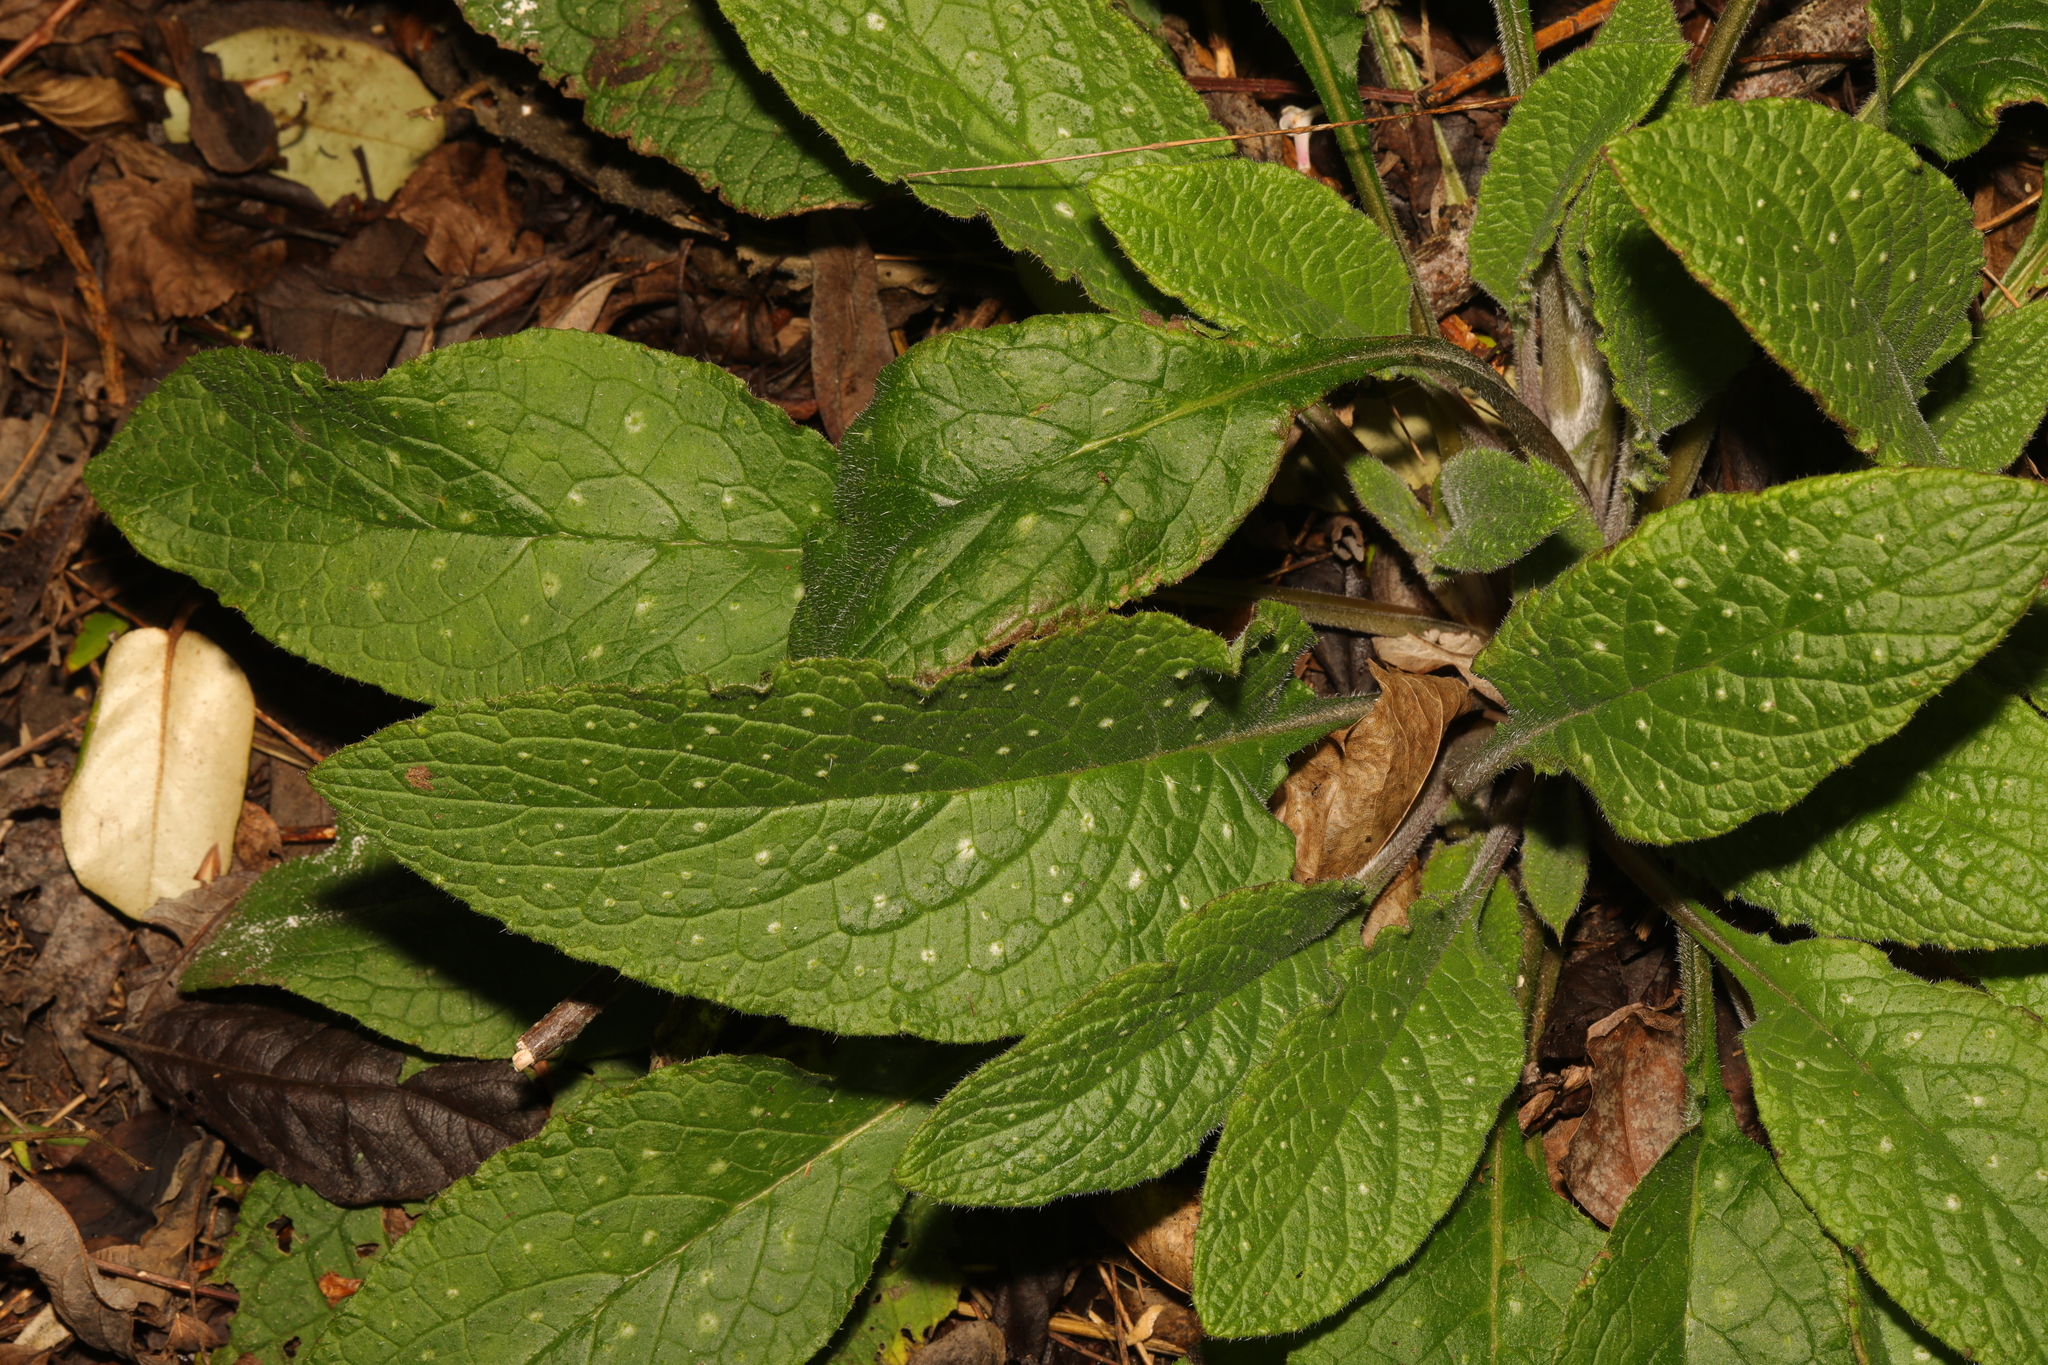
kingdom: Plantae
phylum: Tracheophyta
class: Magnoliopsida
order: Boraginales
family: Boraginaceae
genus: Pentaglottis
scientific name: Pentaglottis sempervirens
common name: Green alkanet
